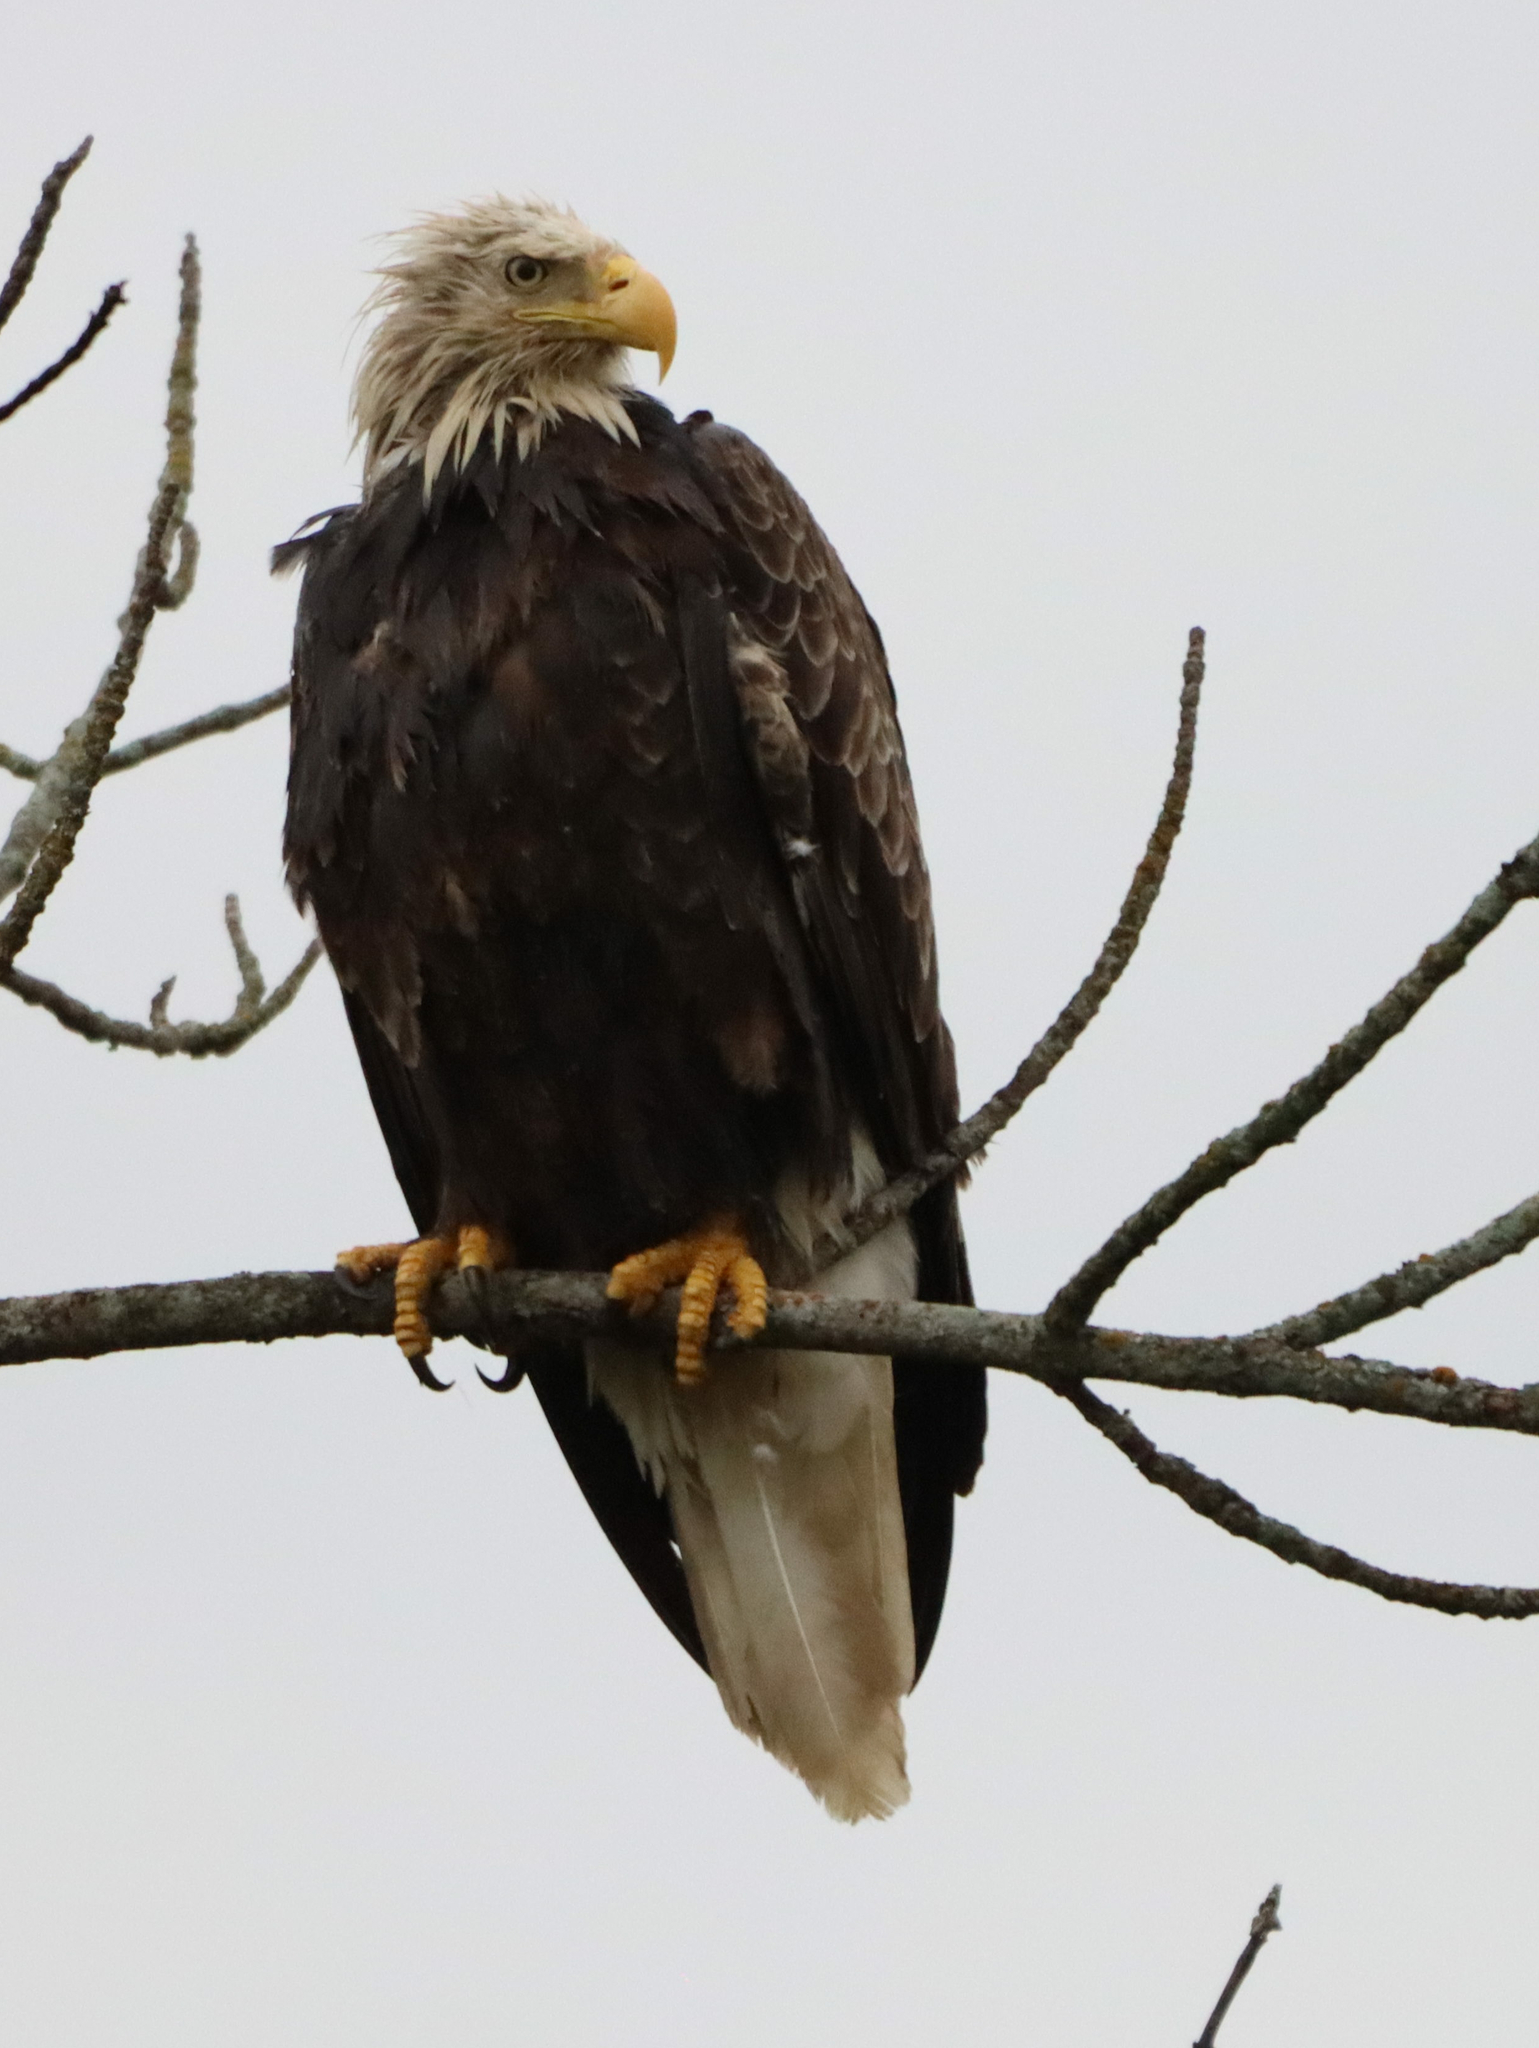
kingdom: Animalia
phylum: Chordata
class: Aves
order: Accipitriformes
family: Accipitridae
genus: Haliaeetus
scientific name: Haliaeetus leucocephalus
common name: Bald eagle
